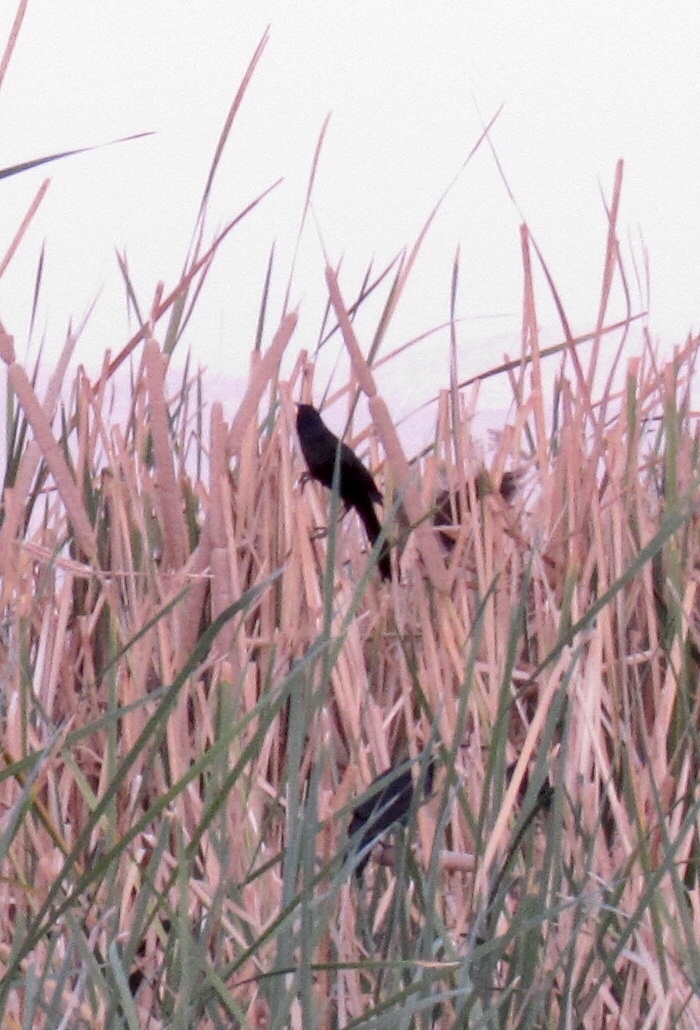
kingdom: Animalia
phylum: Chordata
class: Aves
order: Passeriformes
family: Icteridae
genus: Agelaius
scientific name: Agelaius phoeniceus
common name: Red-winged blackbird
